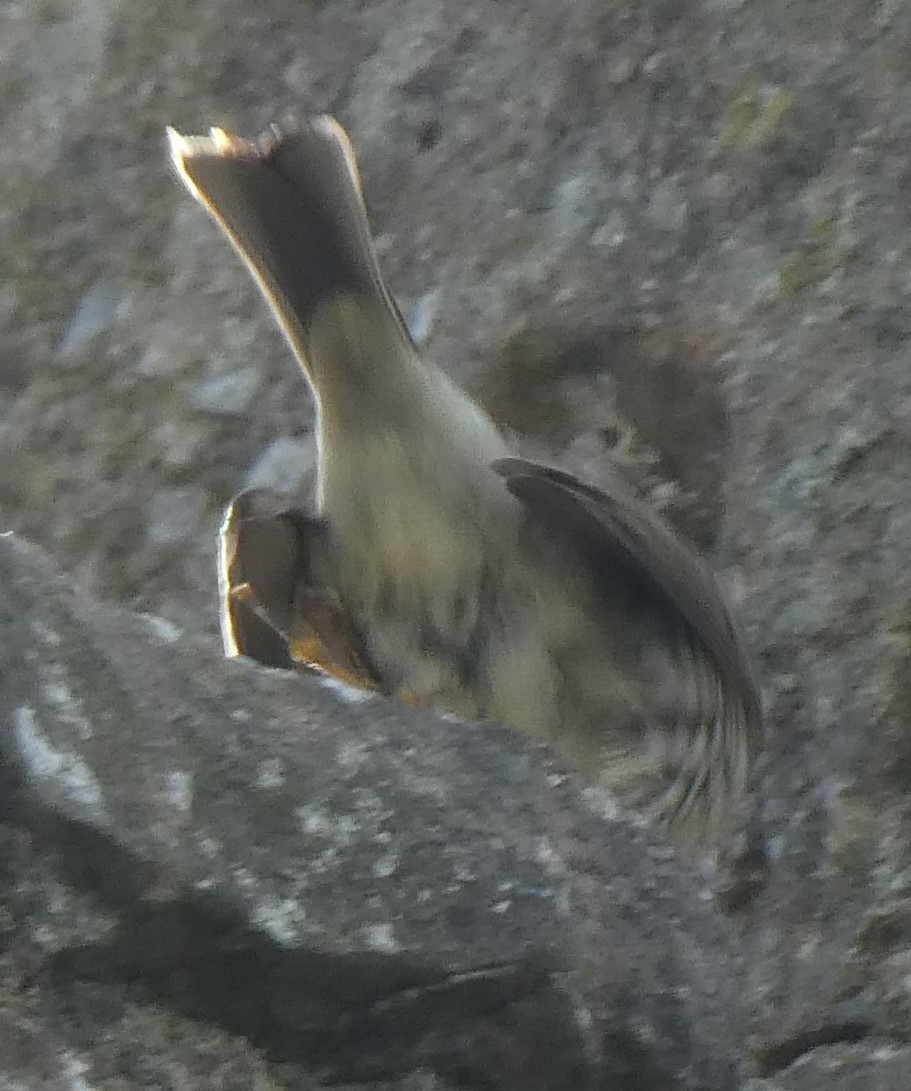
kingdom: Animalia
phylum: Chordata
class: Aves
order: Passeriformes
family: Motacillidae
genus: Anthus
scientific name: Anthus petrosus
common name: Eurasian rock pipit
